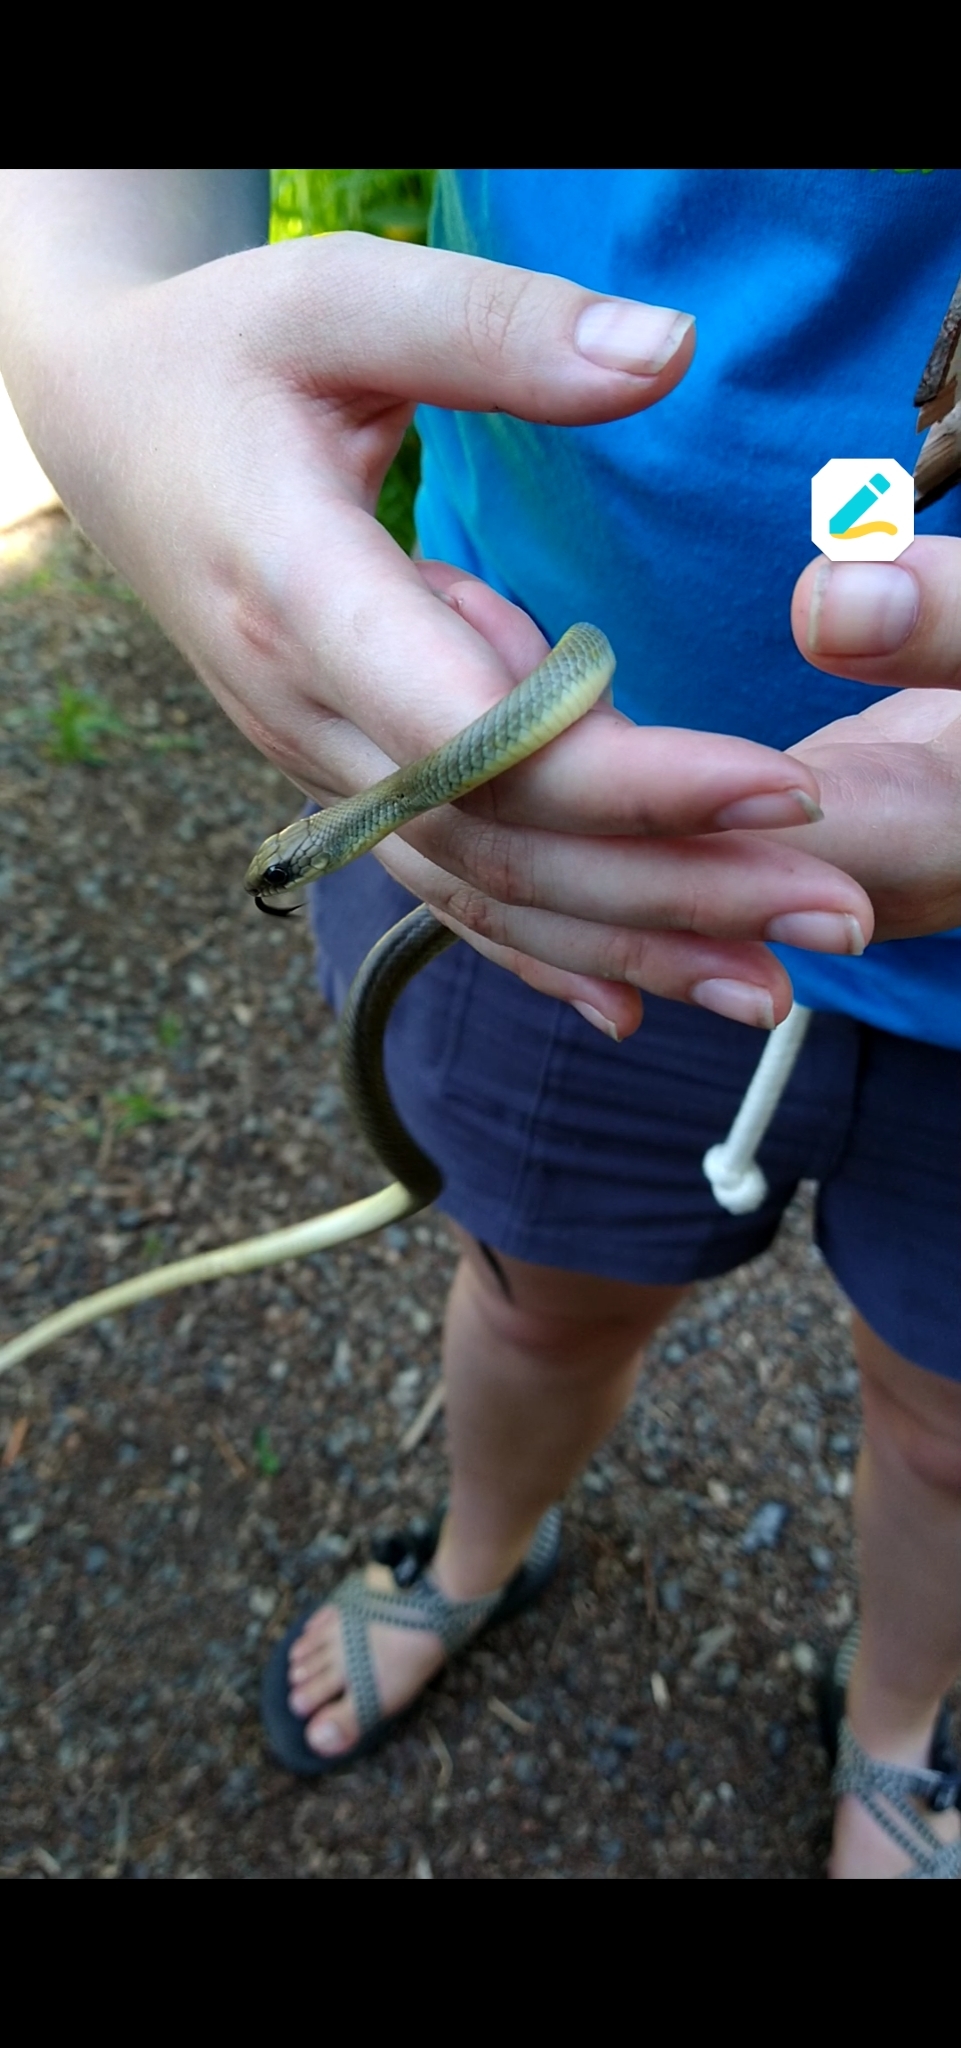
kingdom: Animalia
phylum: Chordata
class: Squamata
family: Colubridae
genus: Coluber
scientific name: Coluber constrictor
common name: Eastern racer
